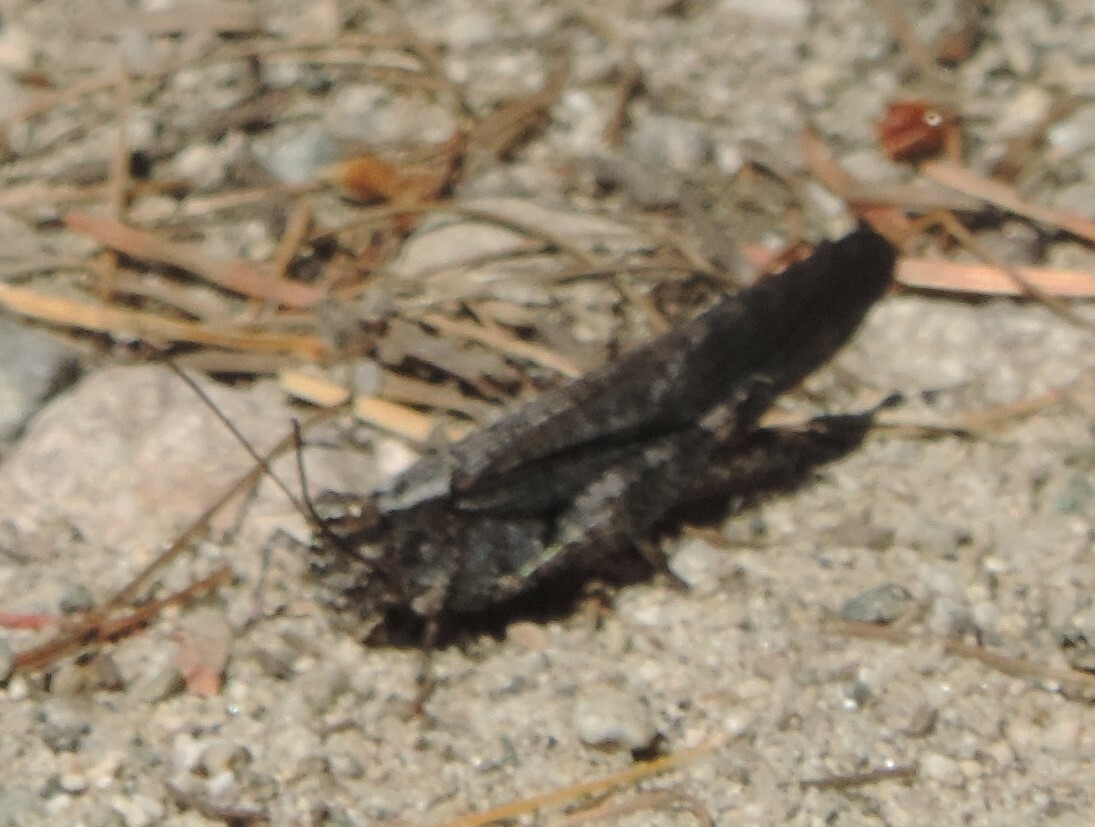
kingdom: Animalia
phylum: Arthropoda
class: Insecta
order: Orthoptera
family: Acrididae
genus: Trimerotropis
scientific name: Trimerotropis verruculata
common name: Crackling forest grasshopper
